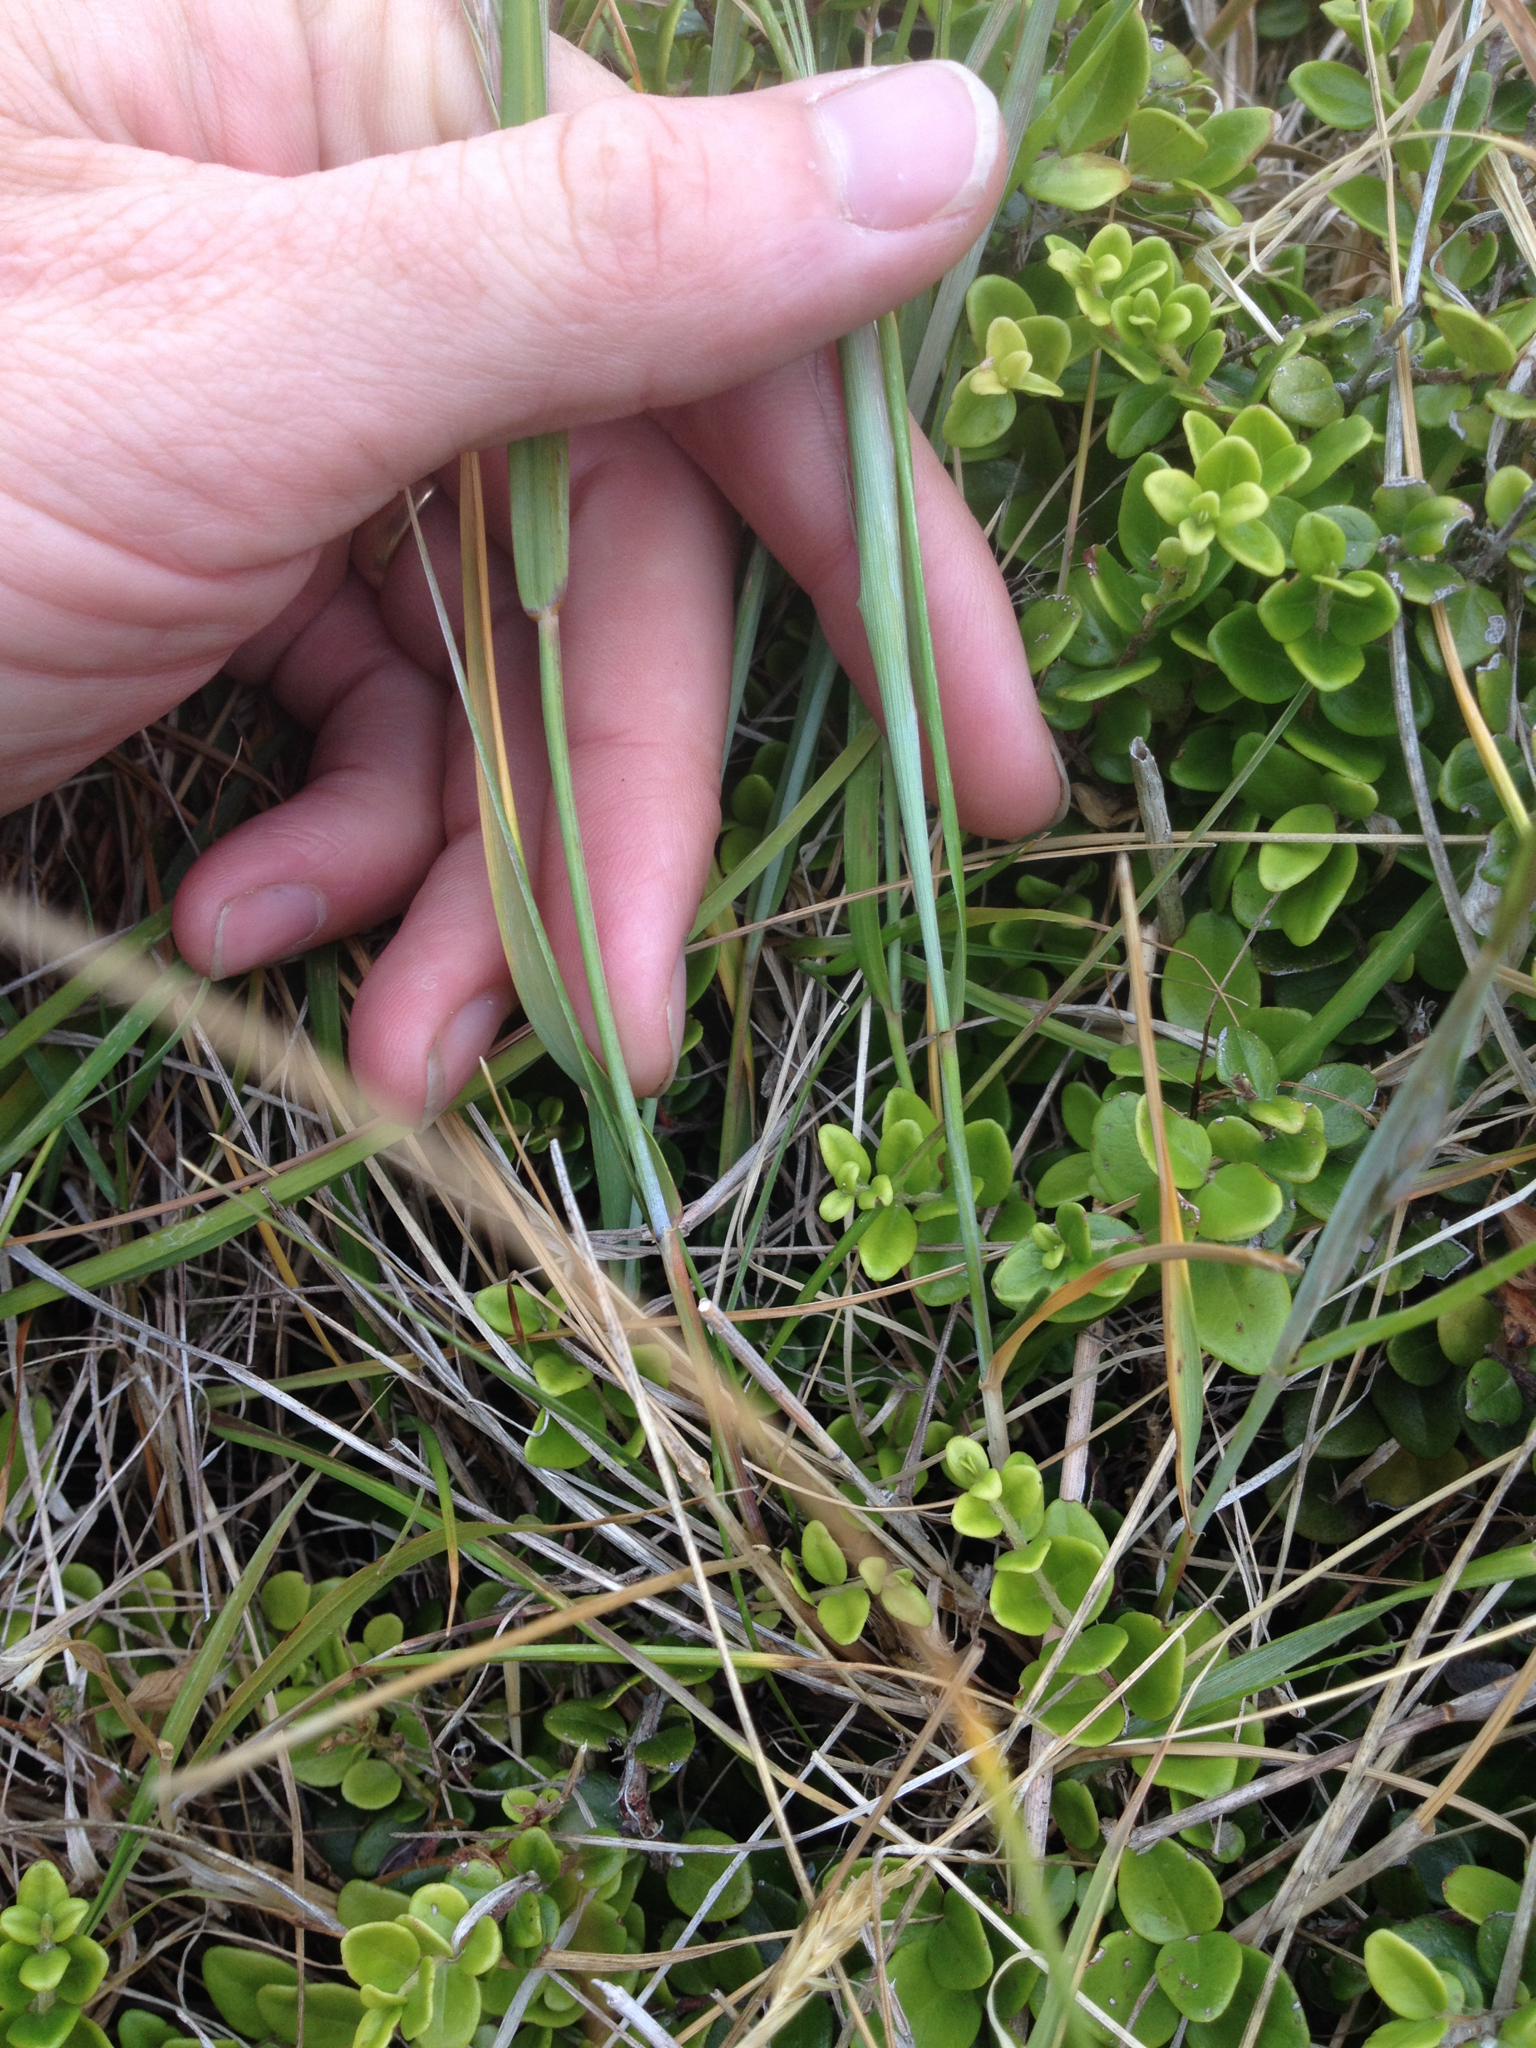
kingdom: Plantae
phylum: Tracheophyta
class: Liliopsida
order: Poales
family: Poaceae
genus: Anthosachne
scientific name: Anthosachne solandri
